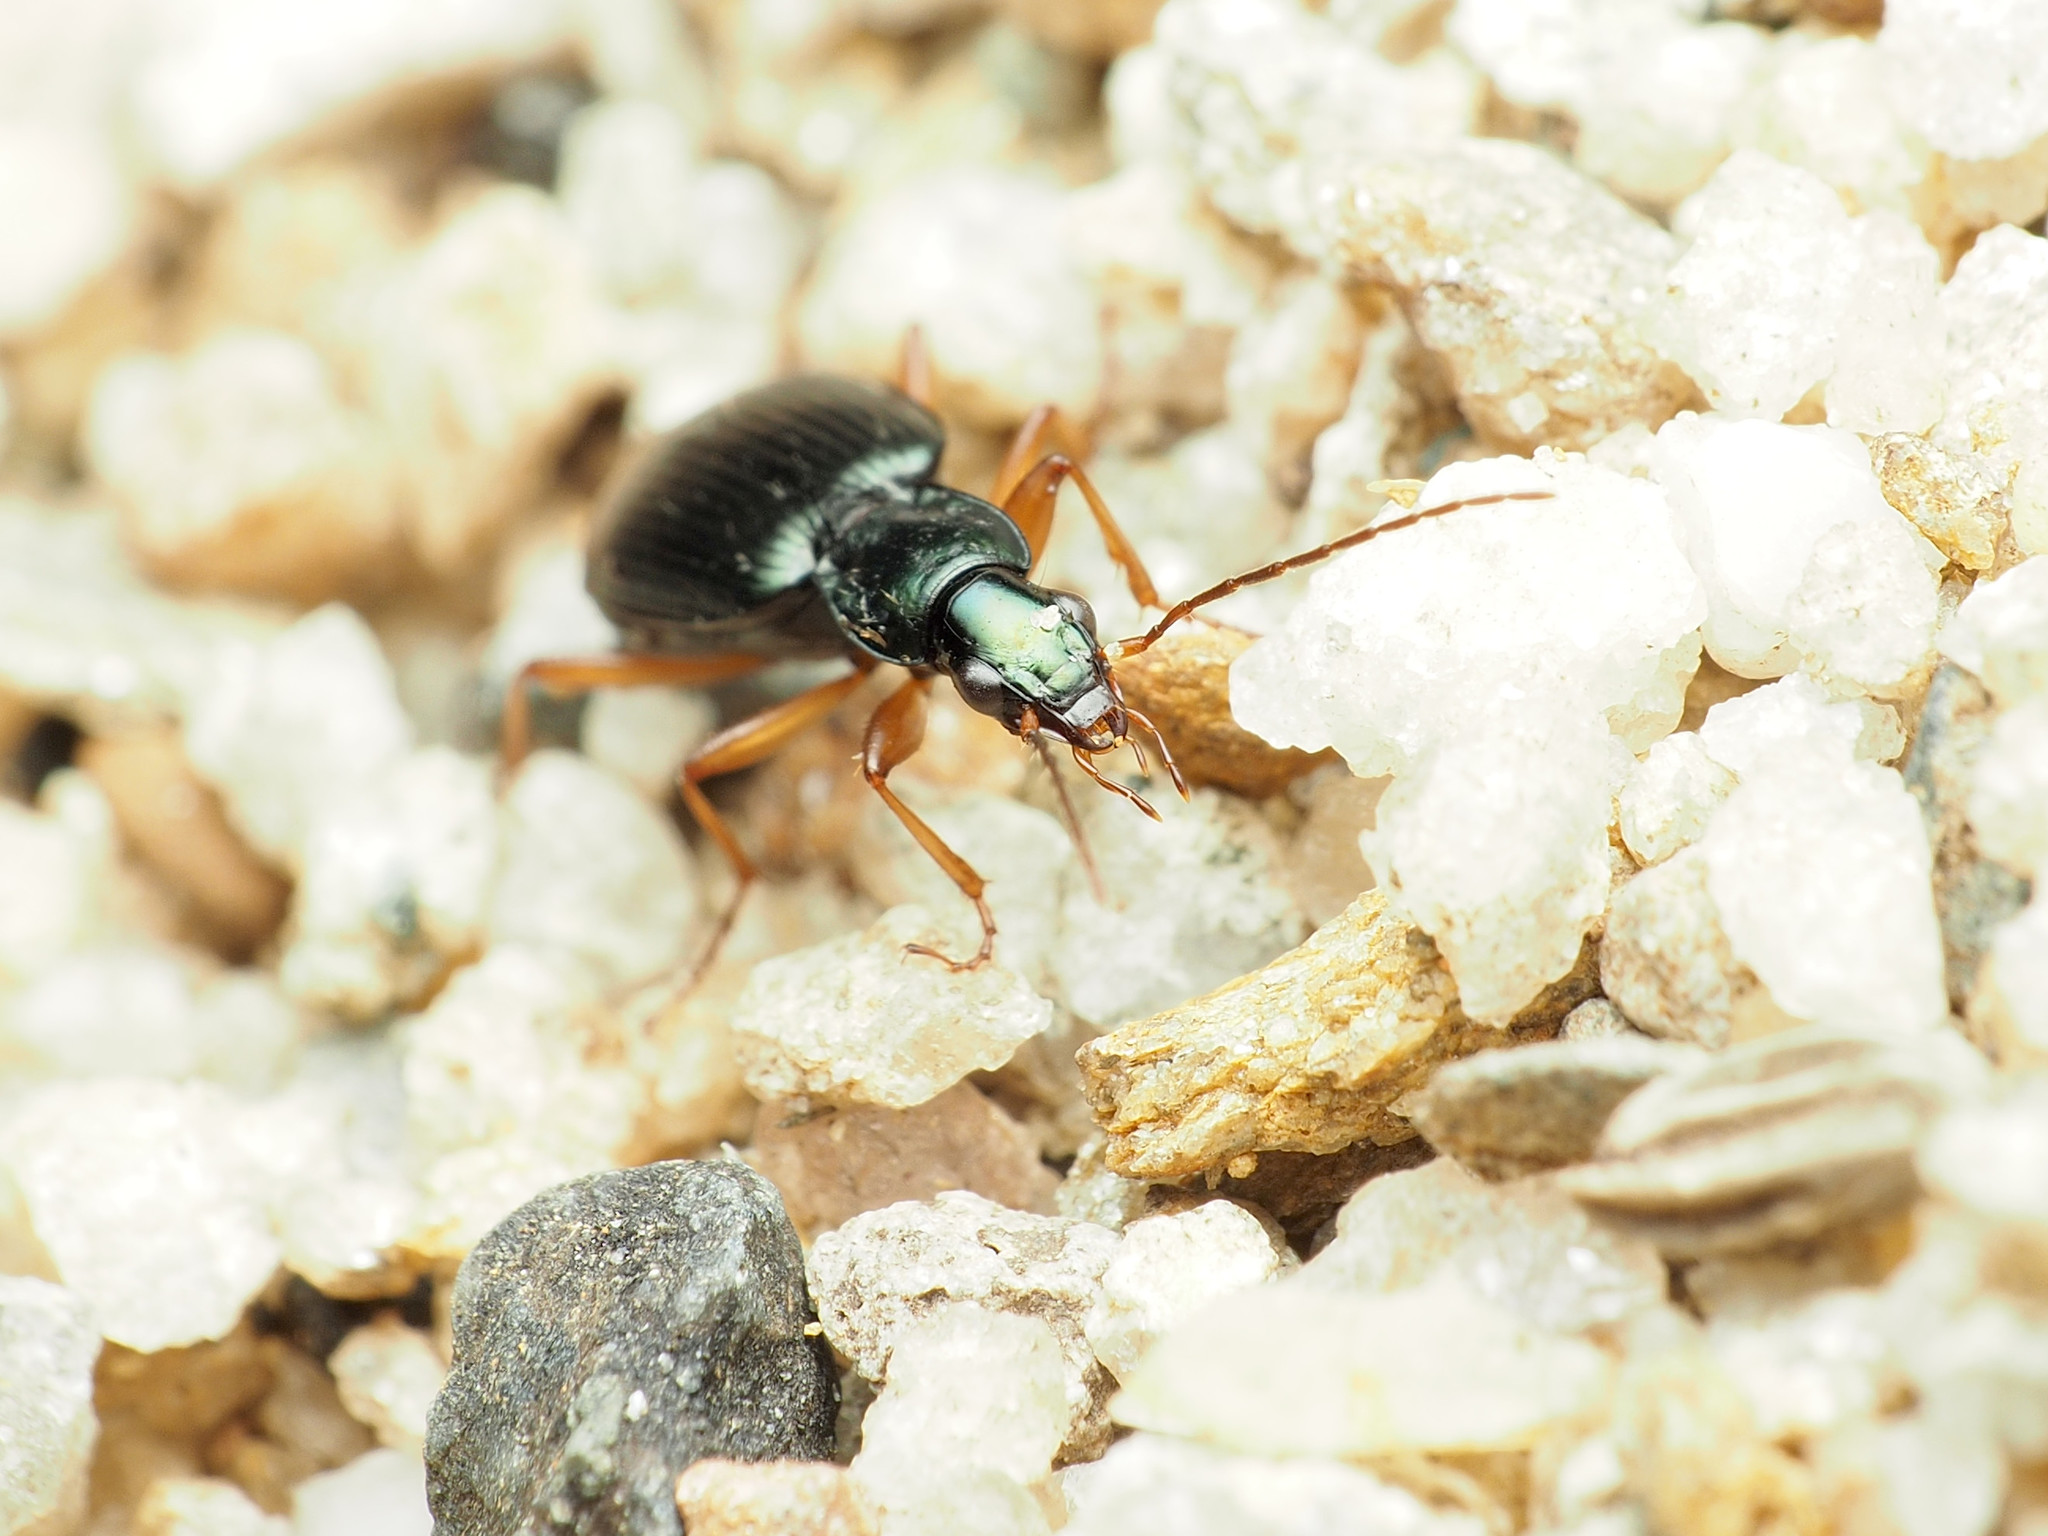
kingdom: Animalia
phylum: Arthropoda
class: Insecta
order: Coleoptera
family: Carabidae
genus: Agonum
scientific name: Agonum extensicolle
